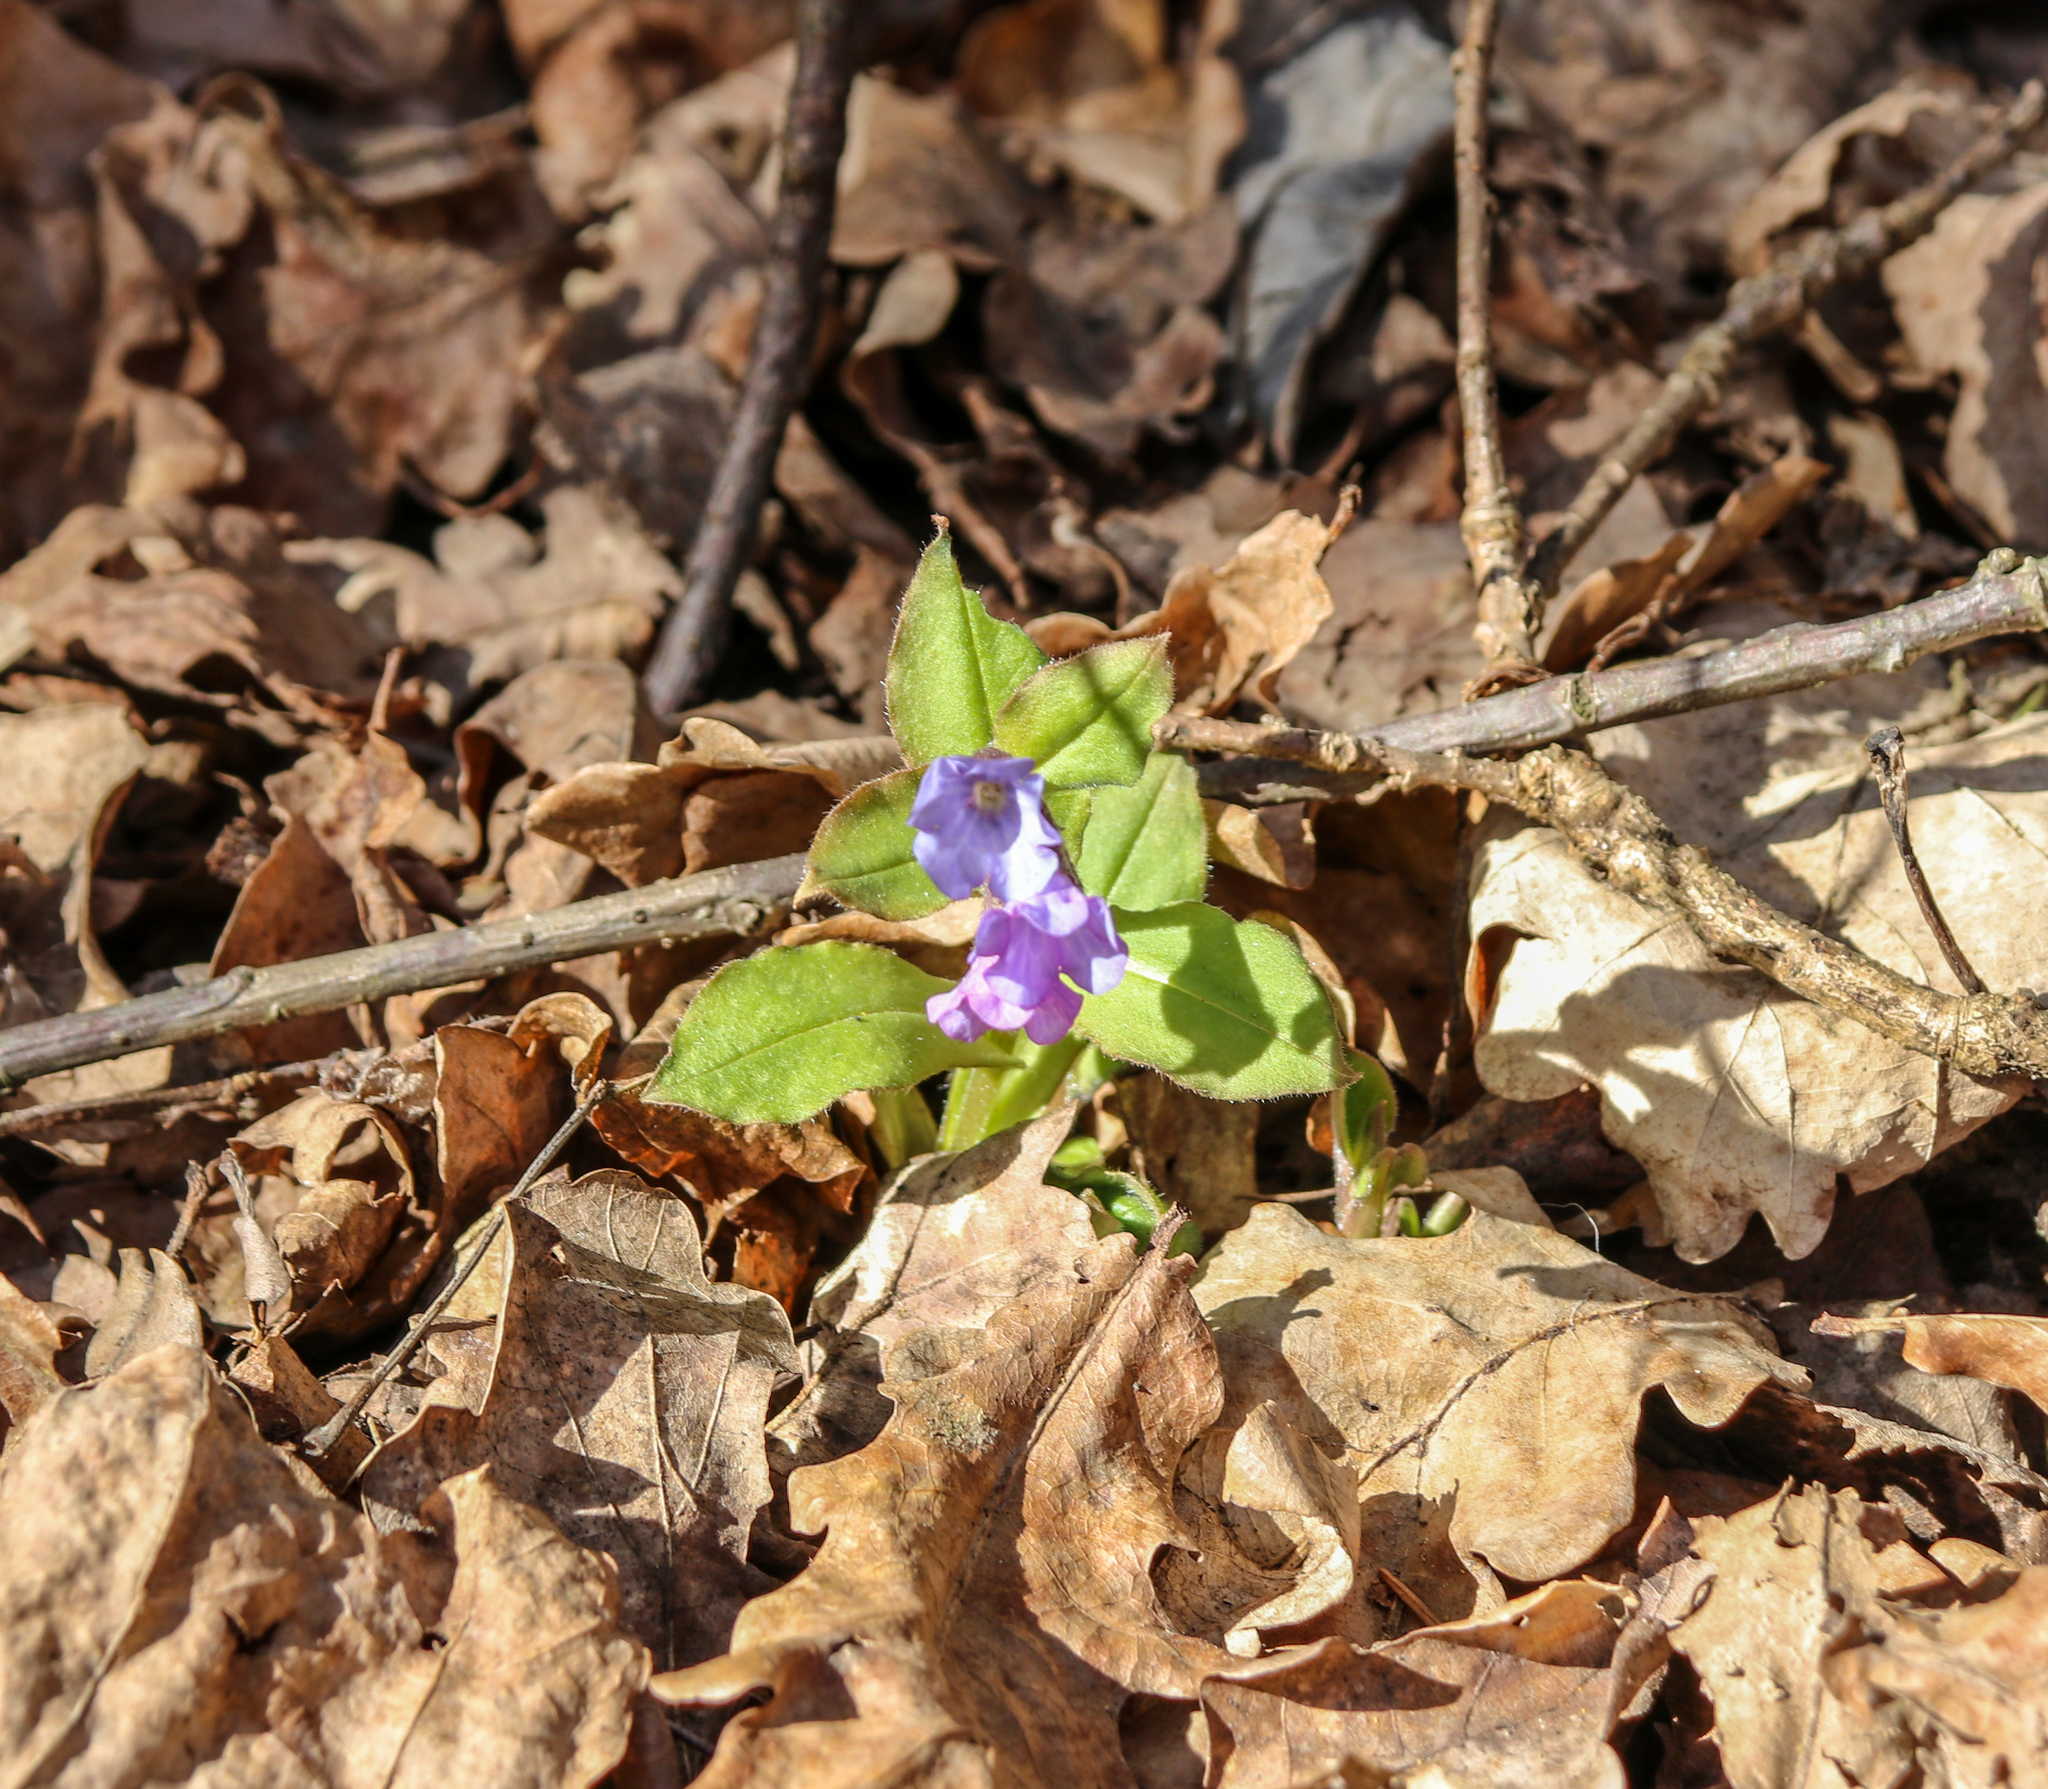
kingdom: Plantae
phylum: Tracheophyta
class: Magnoliopsida
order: Boraginales
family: Boraginaceae
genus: Pulmonaria
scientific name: Pulmonaria obscura
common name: Suffolk lungwort
